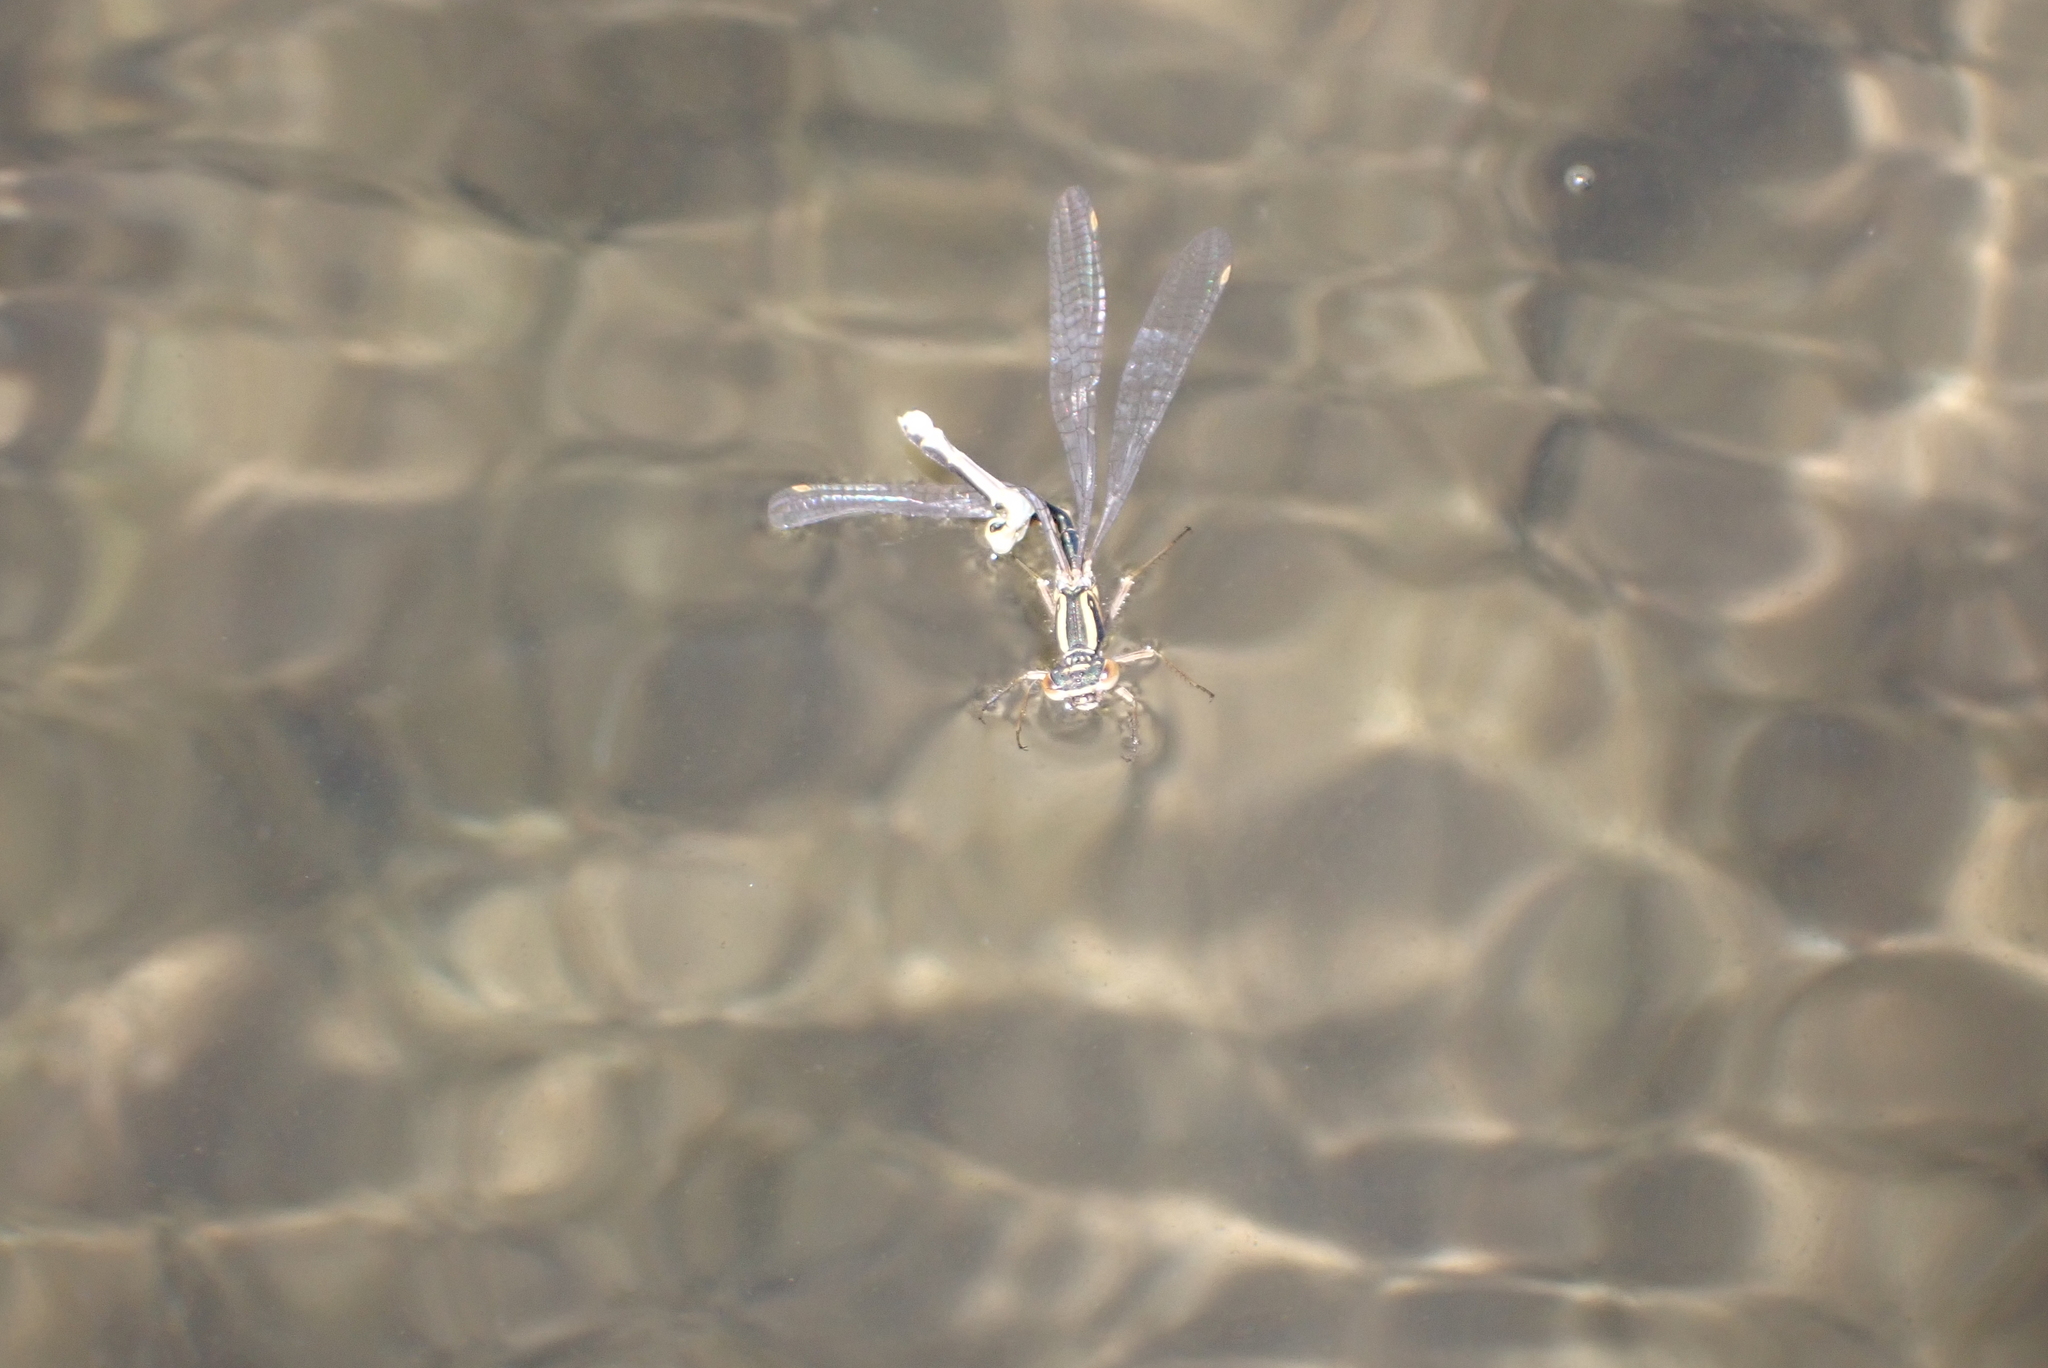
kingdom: Animalia
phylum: Arthropoda
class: Insecta
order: Odonata
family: Coenagrionidae
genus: Xanthocnemis
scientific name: Xanthocnemis zealandica
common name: Common redcoat damselfly
